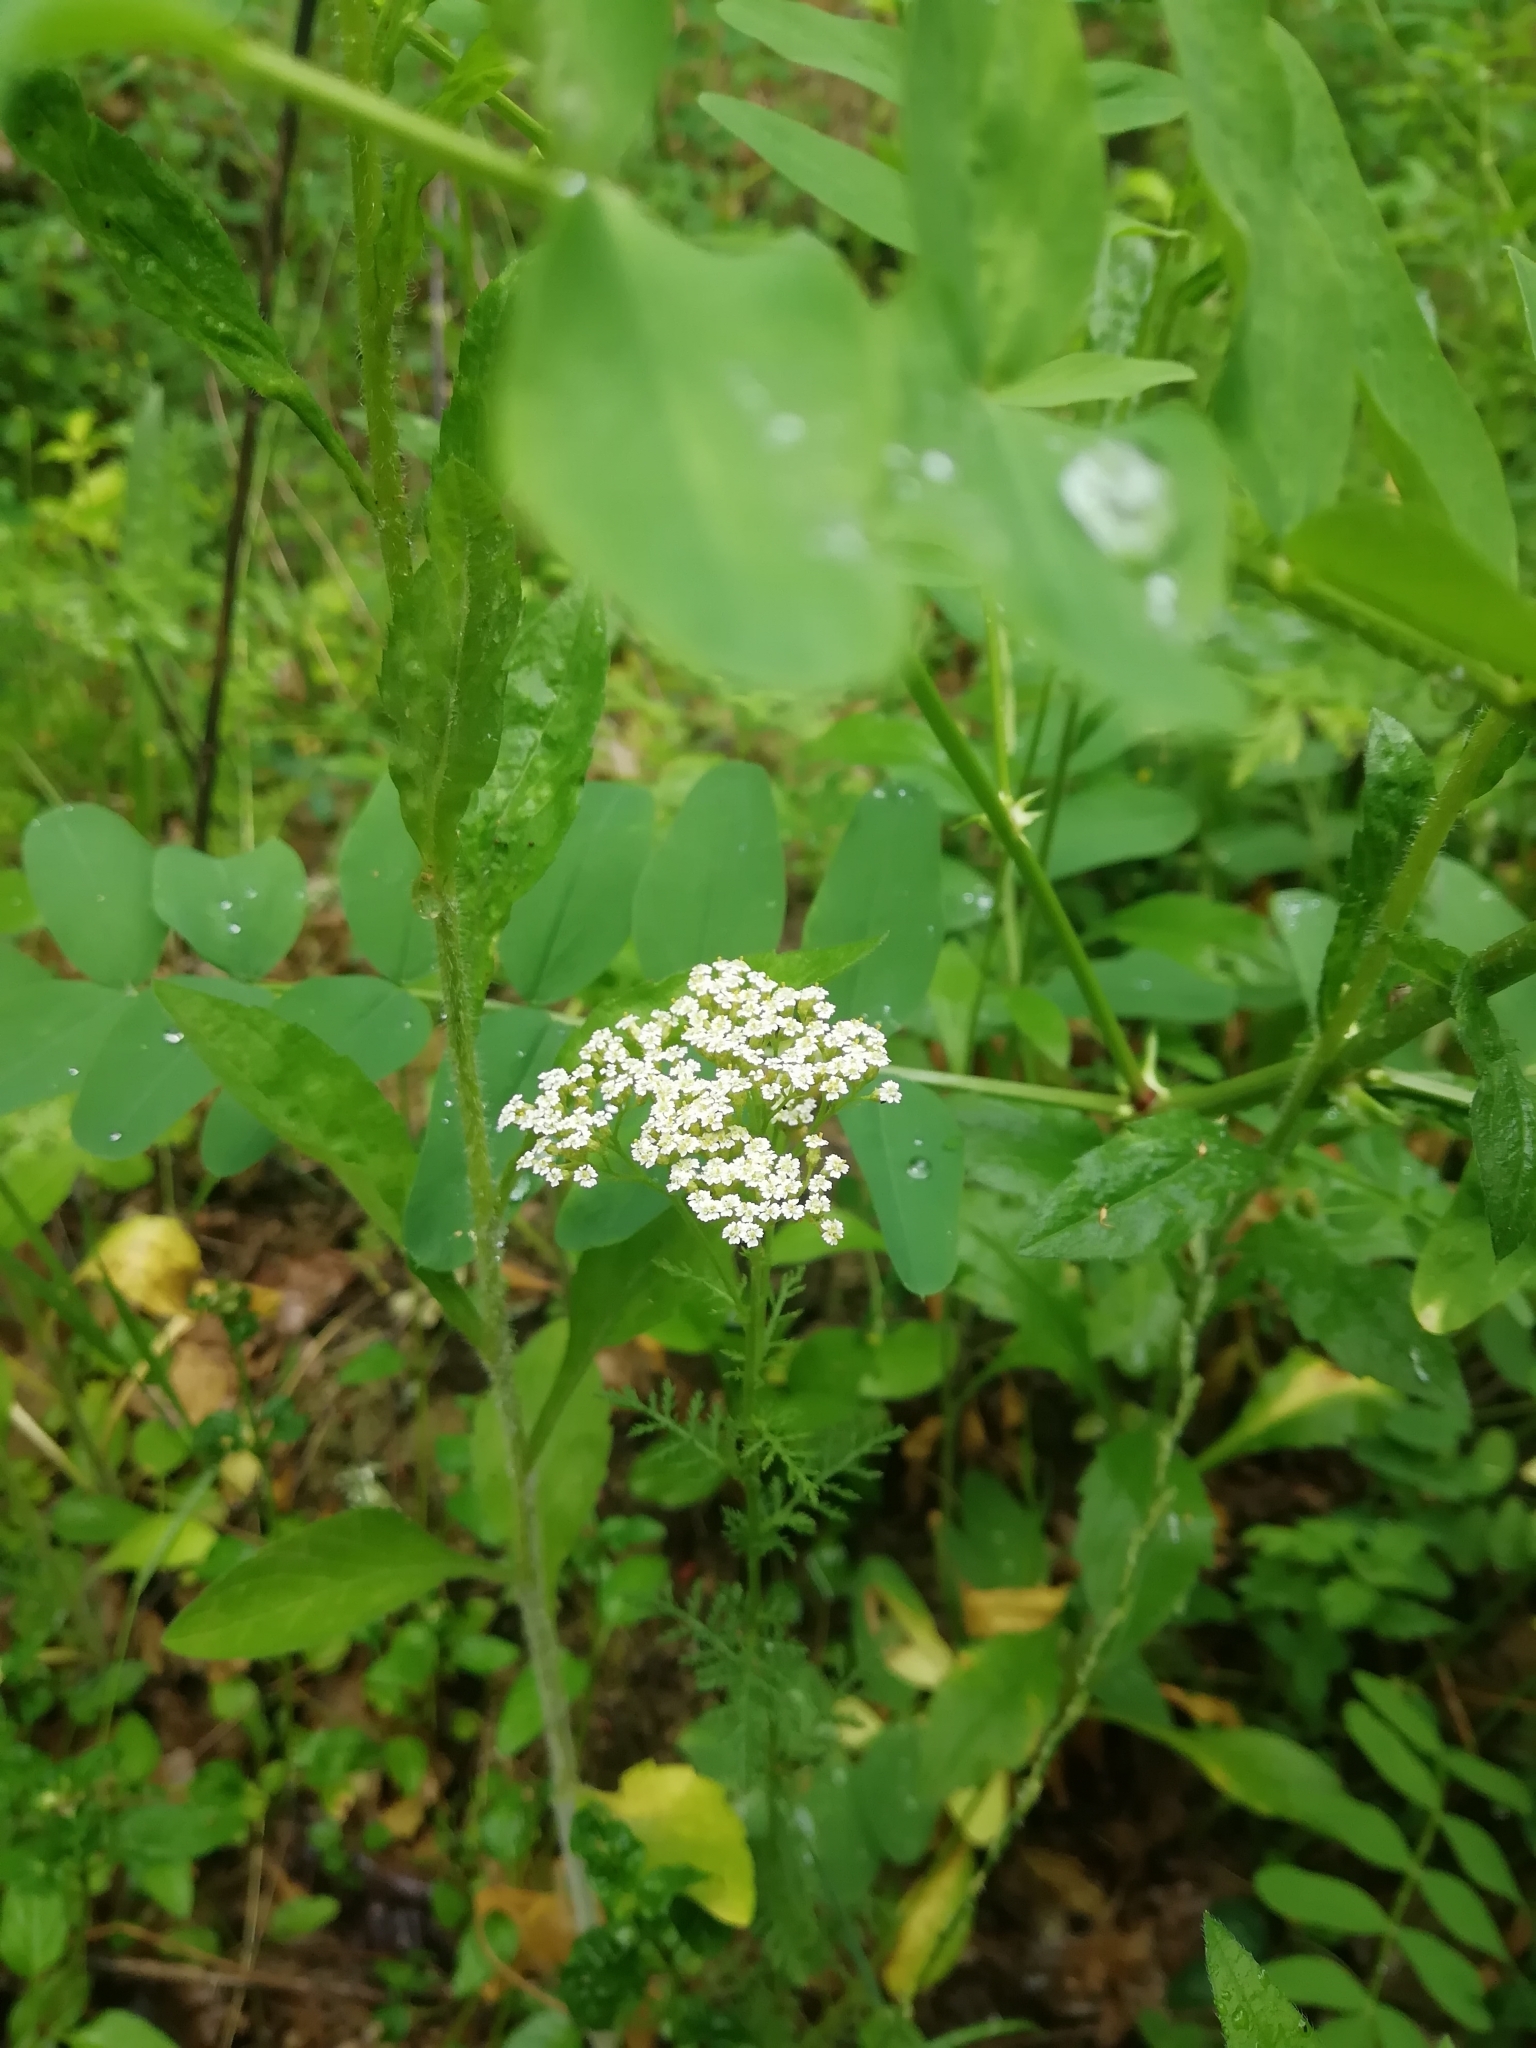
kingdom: Plantae
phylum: Tracheophyta
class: Magnoliopsida
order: Asterales
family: Asteraceae
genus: Achillea
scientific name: Achillea nobilis
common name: Noble yarrow
